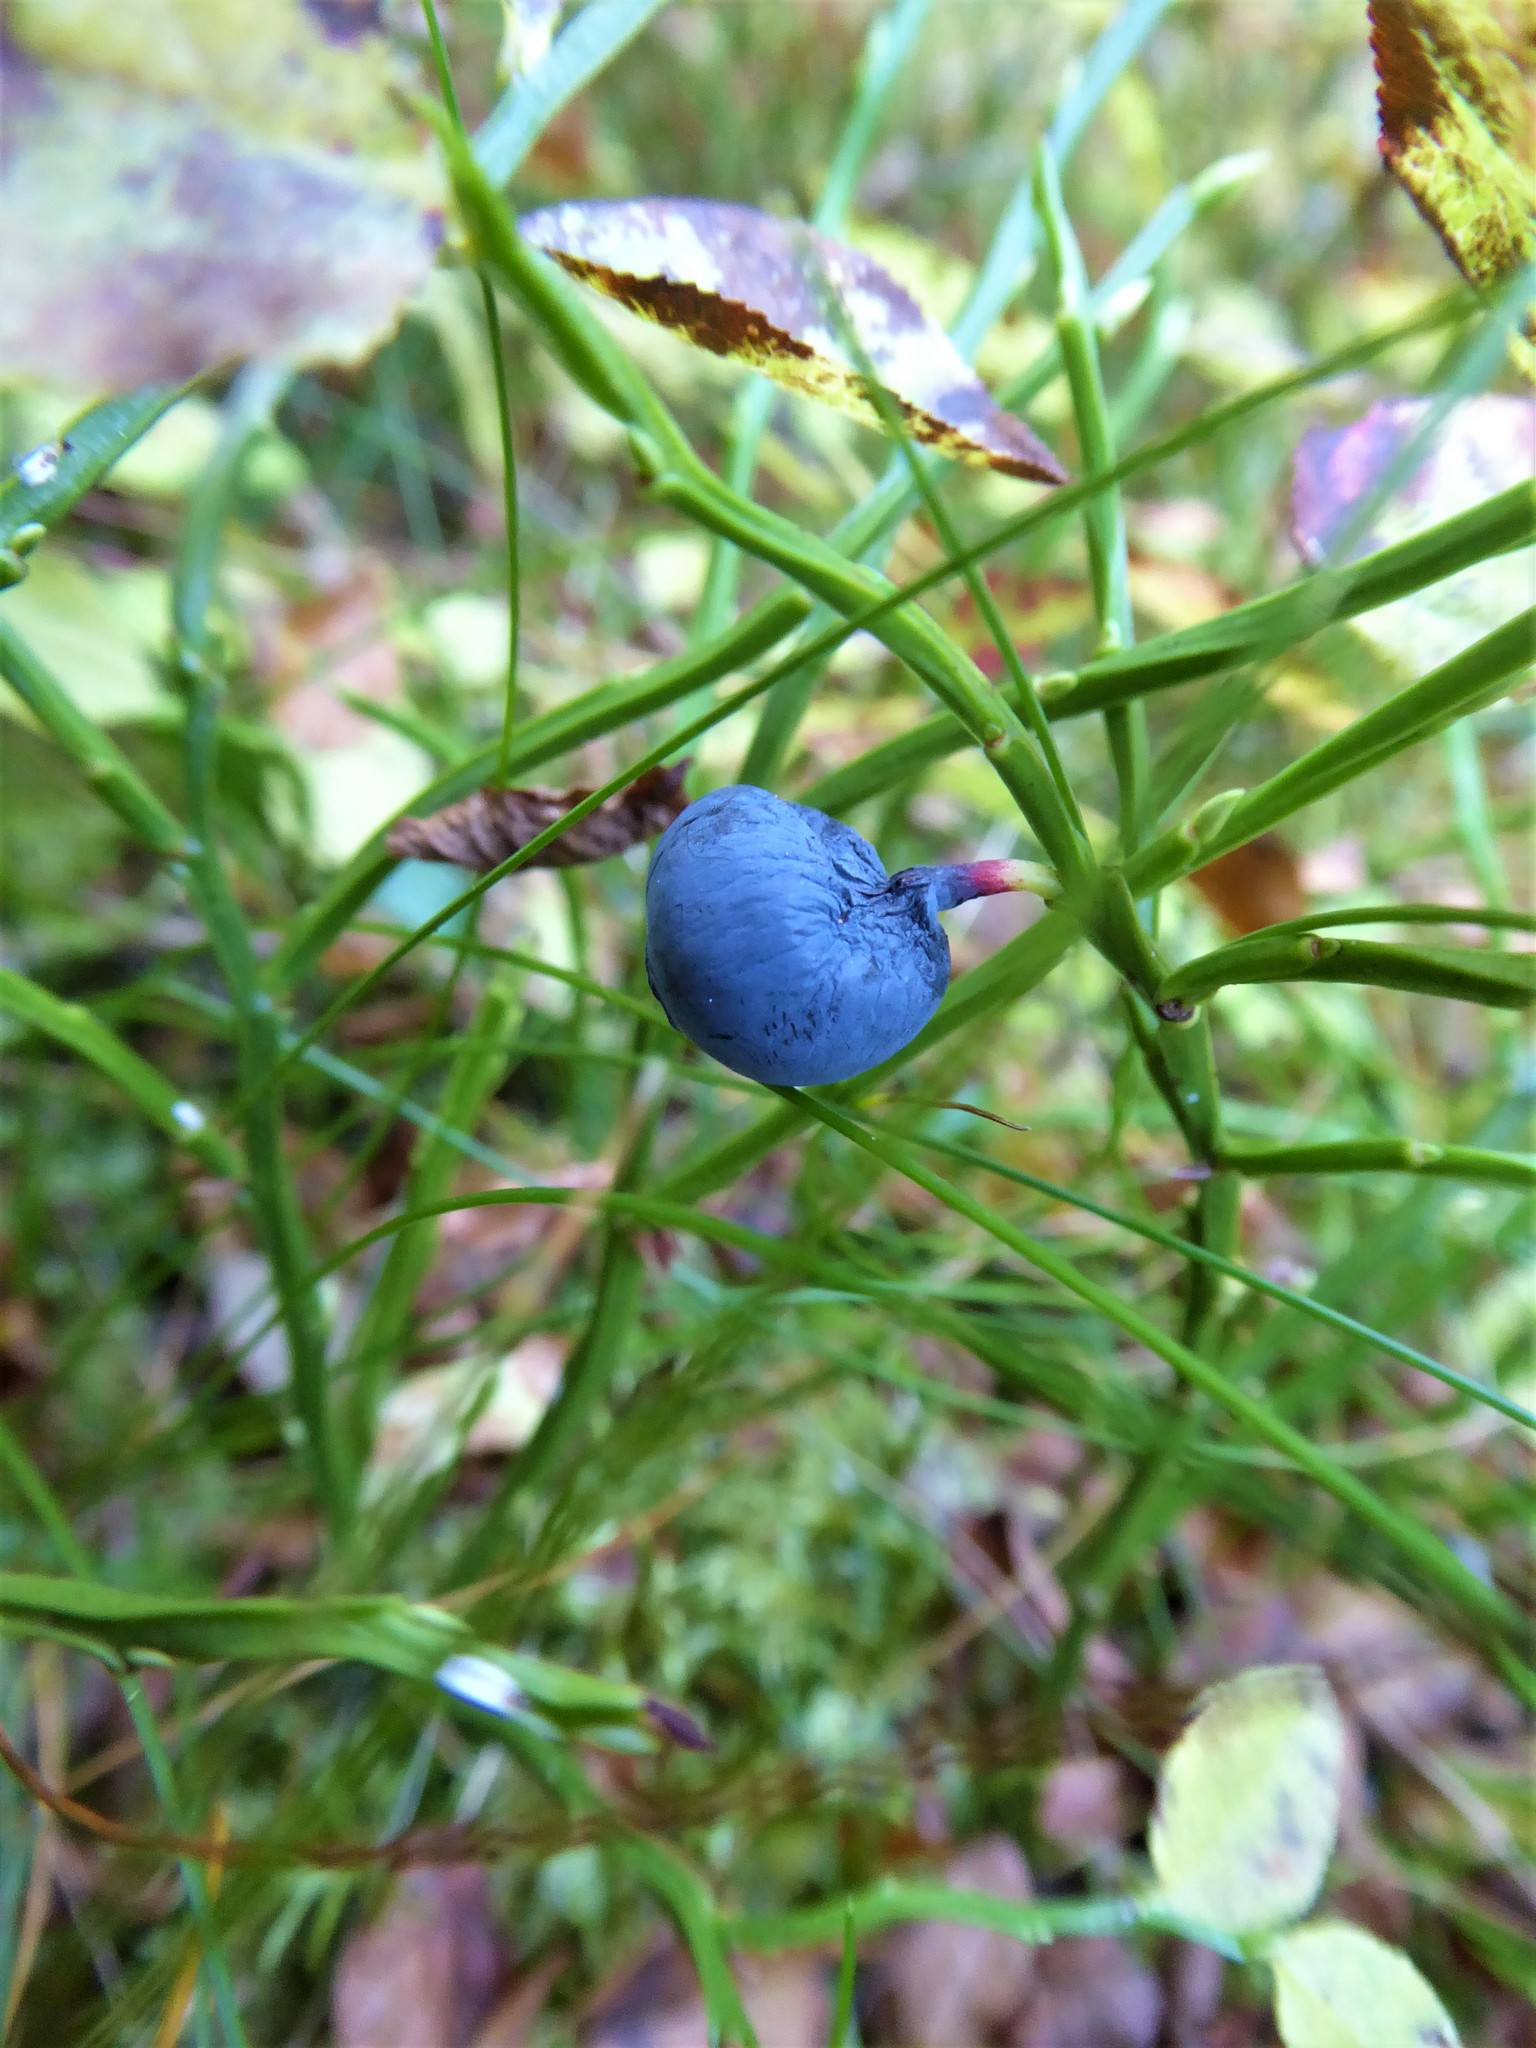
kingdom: Plantae
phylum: Tracheophyta
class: Magnoliopsida
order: Ericales
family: Ericaceae
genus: Vaccinium
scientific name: Vaccinium myrtillus
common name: Bilberry
